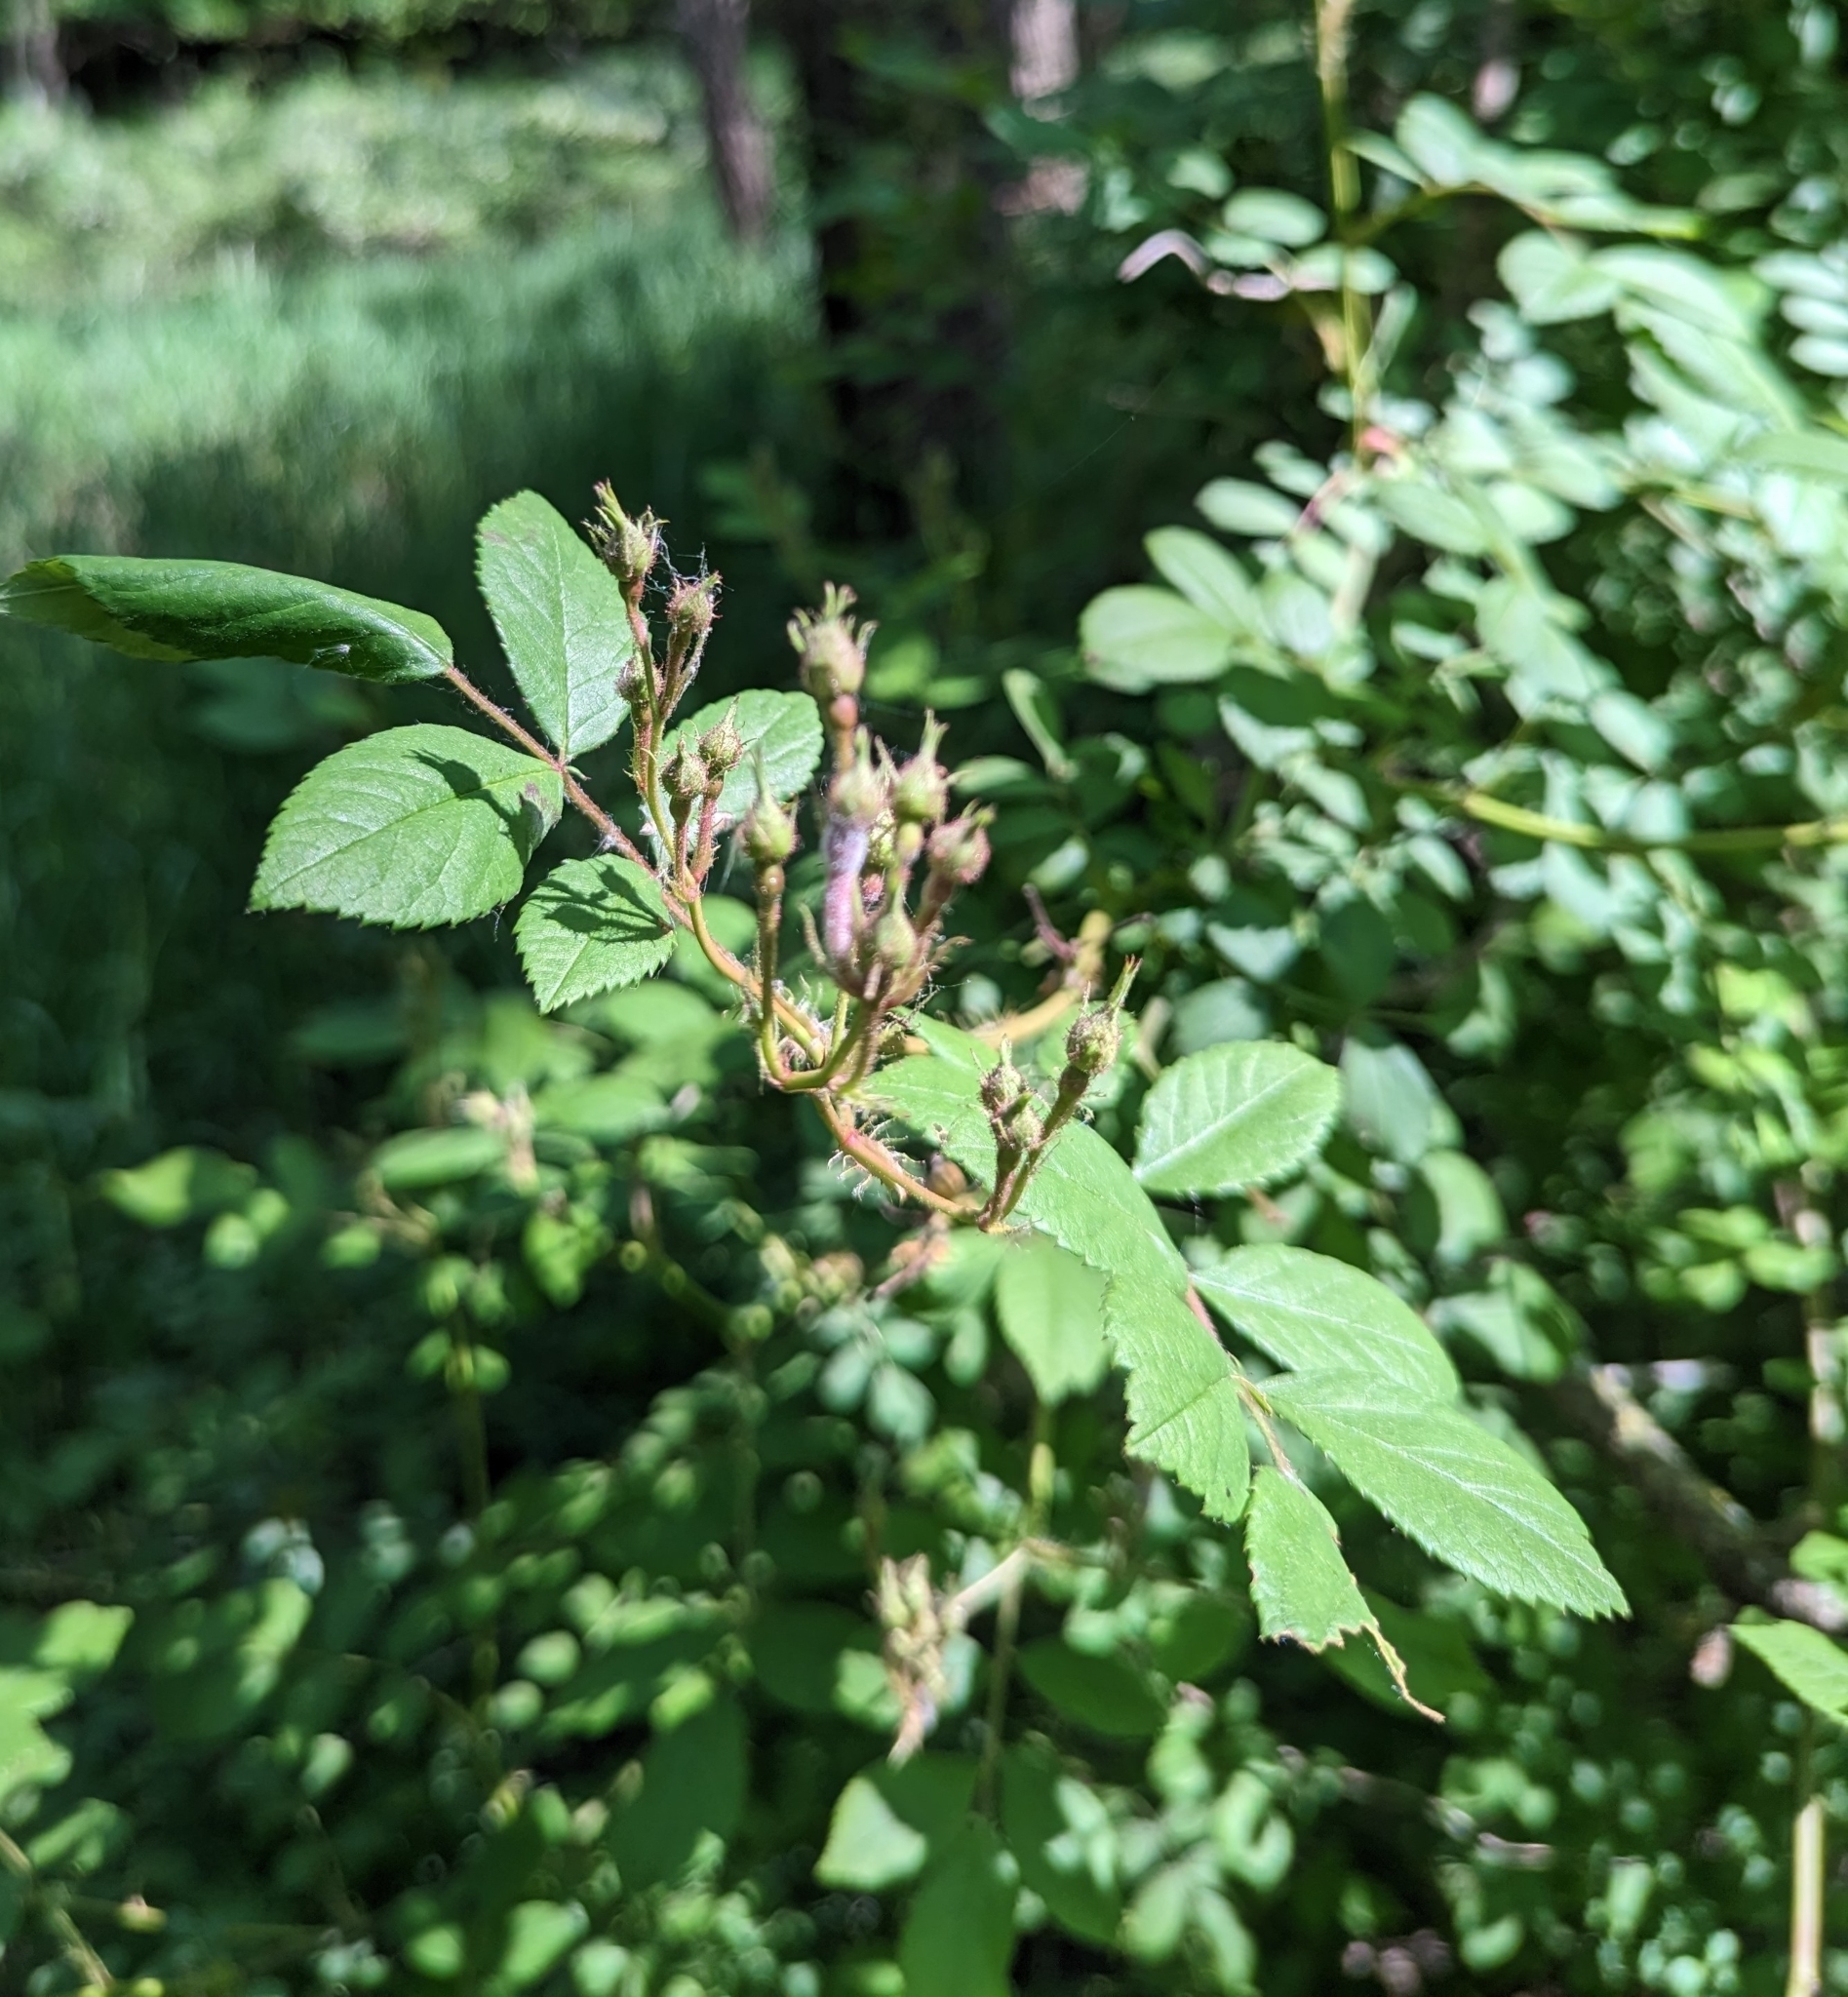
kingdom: Plantae
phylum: Tracheophyta
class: Magnoliopsida
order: Rosales
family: Rosaceae
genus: Rosa
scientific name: Rosa multiflora
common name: Multiflora rose
